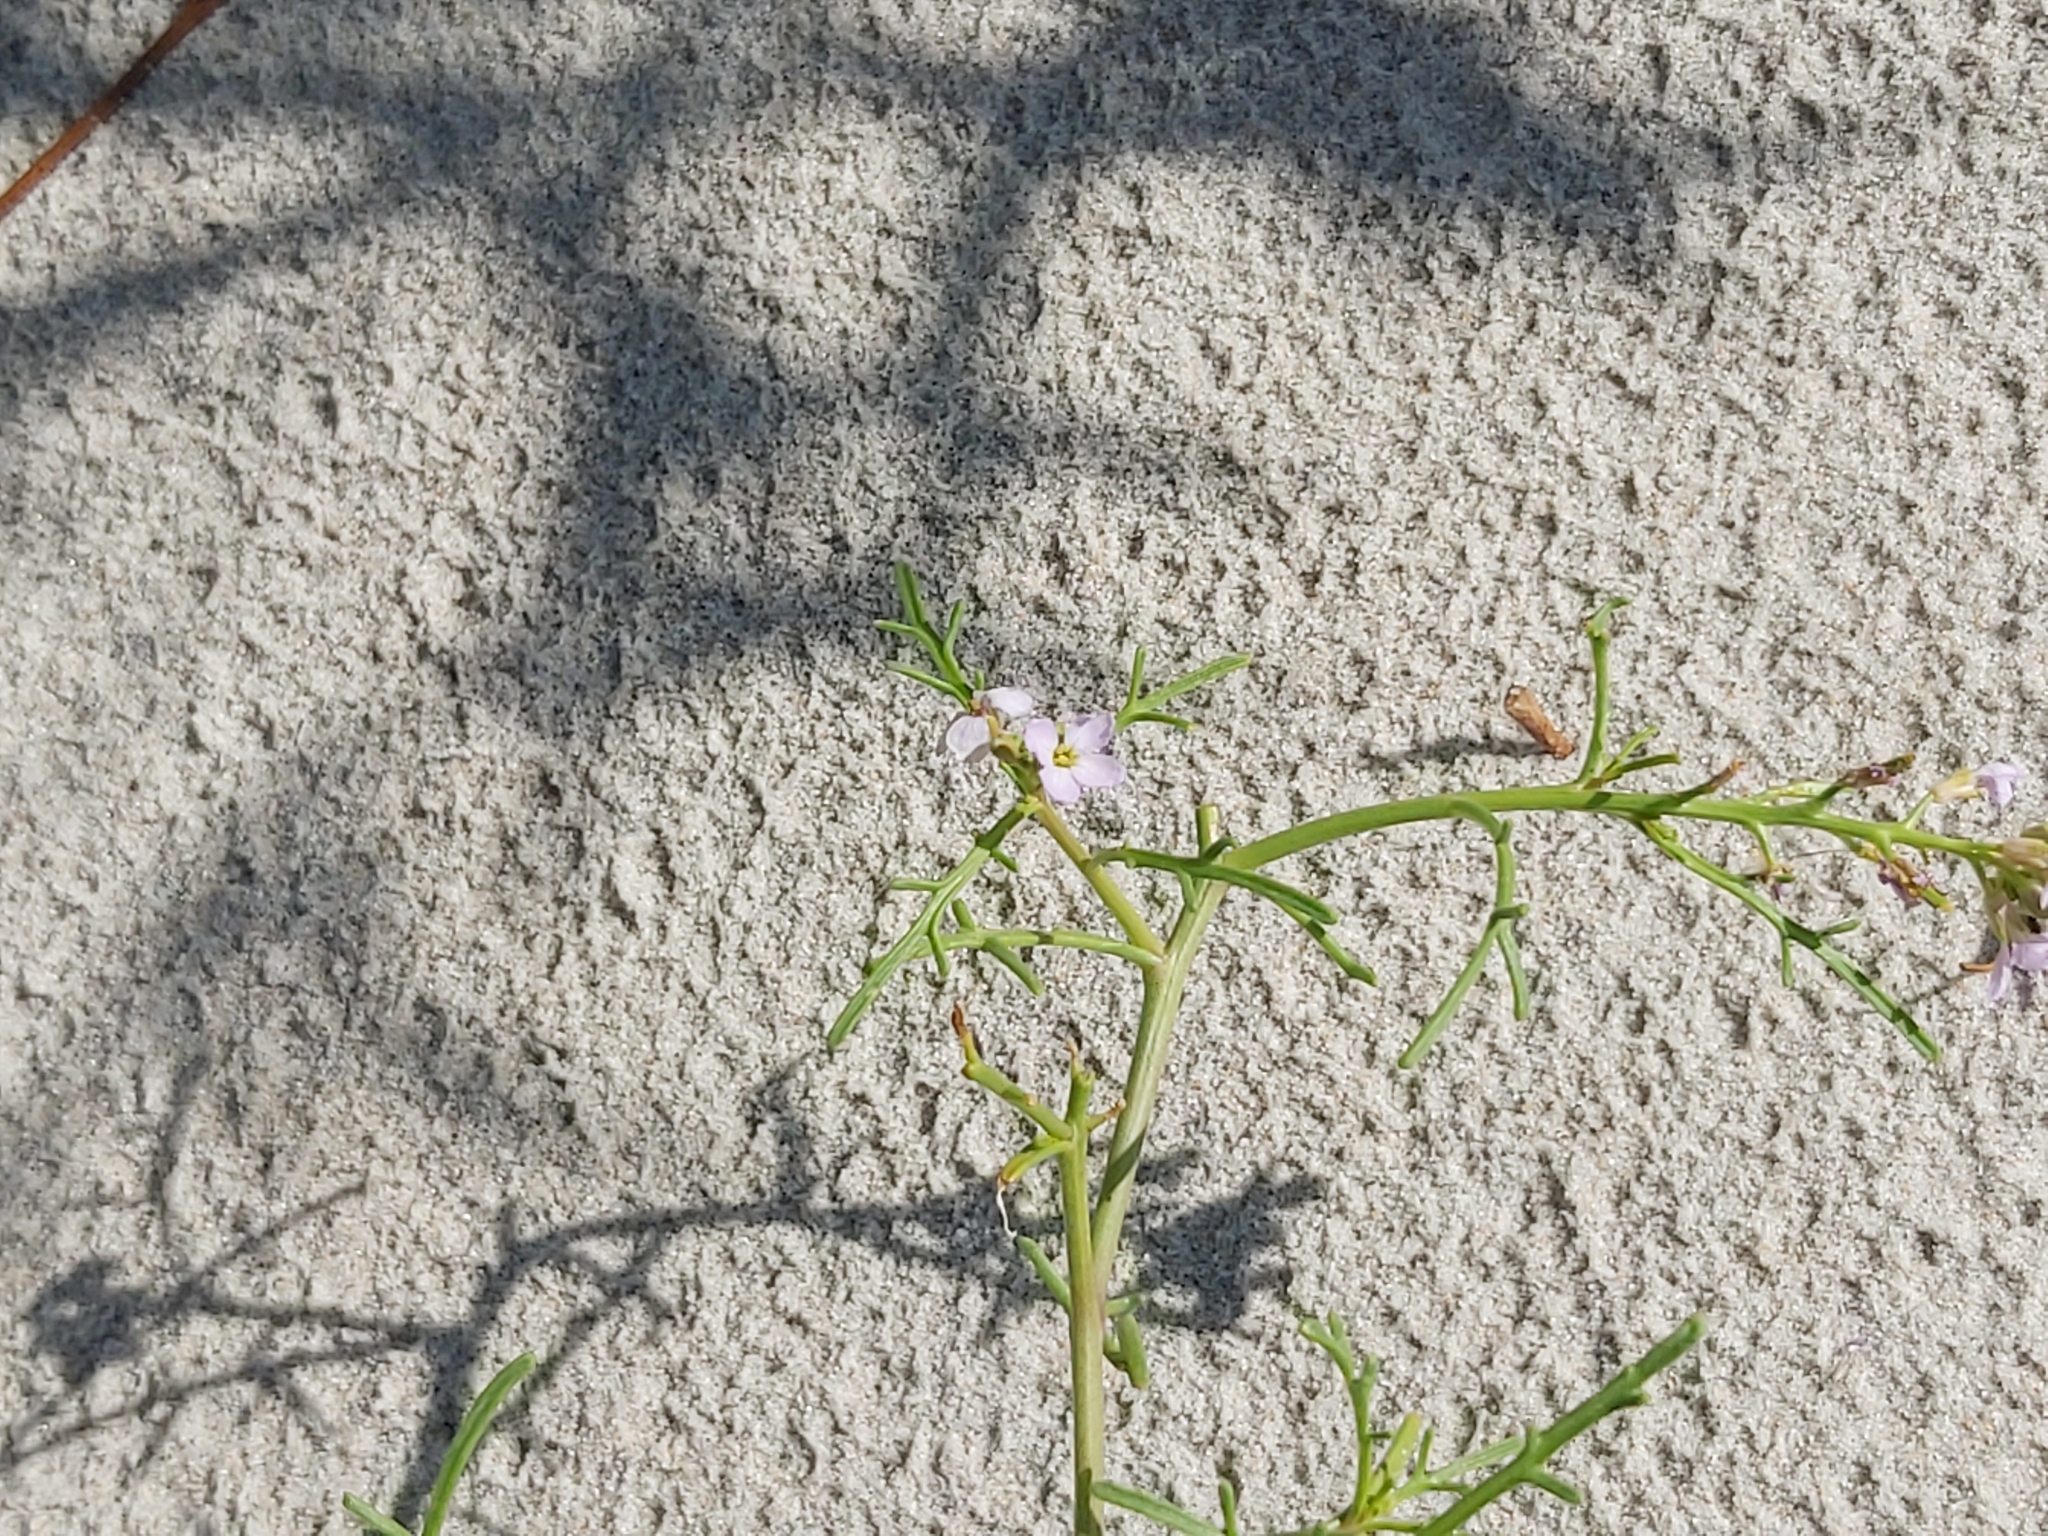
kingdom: Plantae
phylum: Tracheophyta
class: Magnoliopsida
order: Brassicales
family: Brassicaceae
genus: Cakile
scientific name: Cakile maritima
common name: Sea rocket
